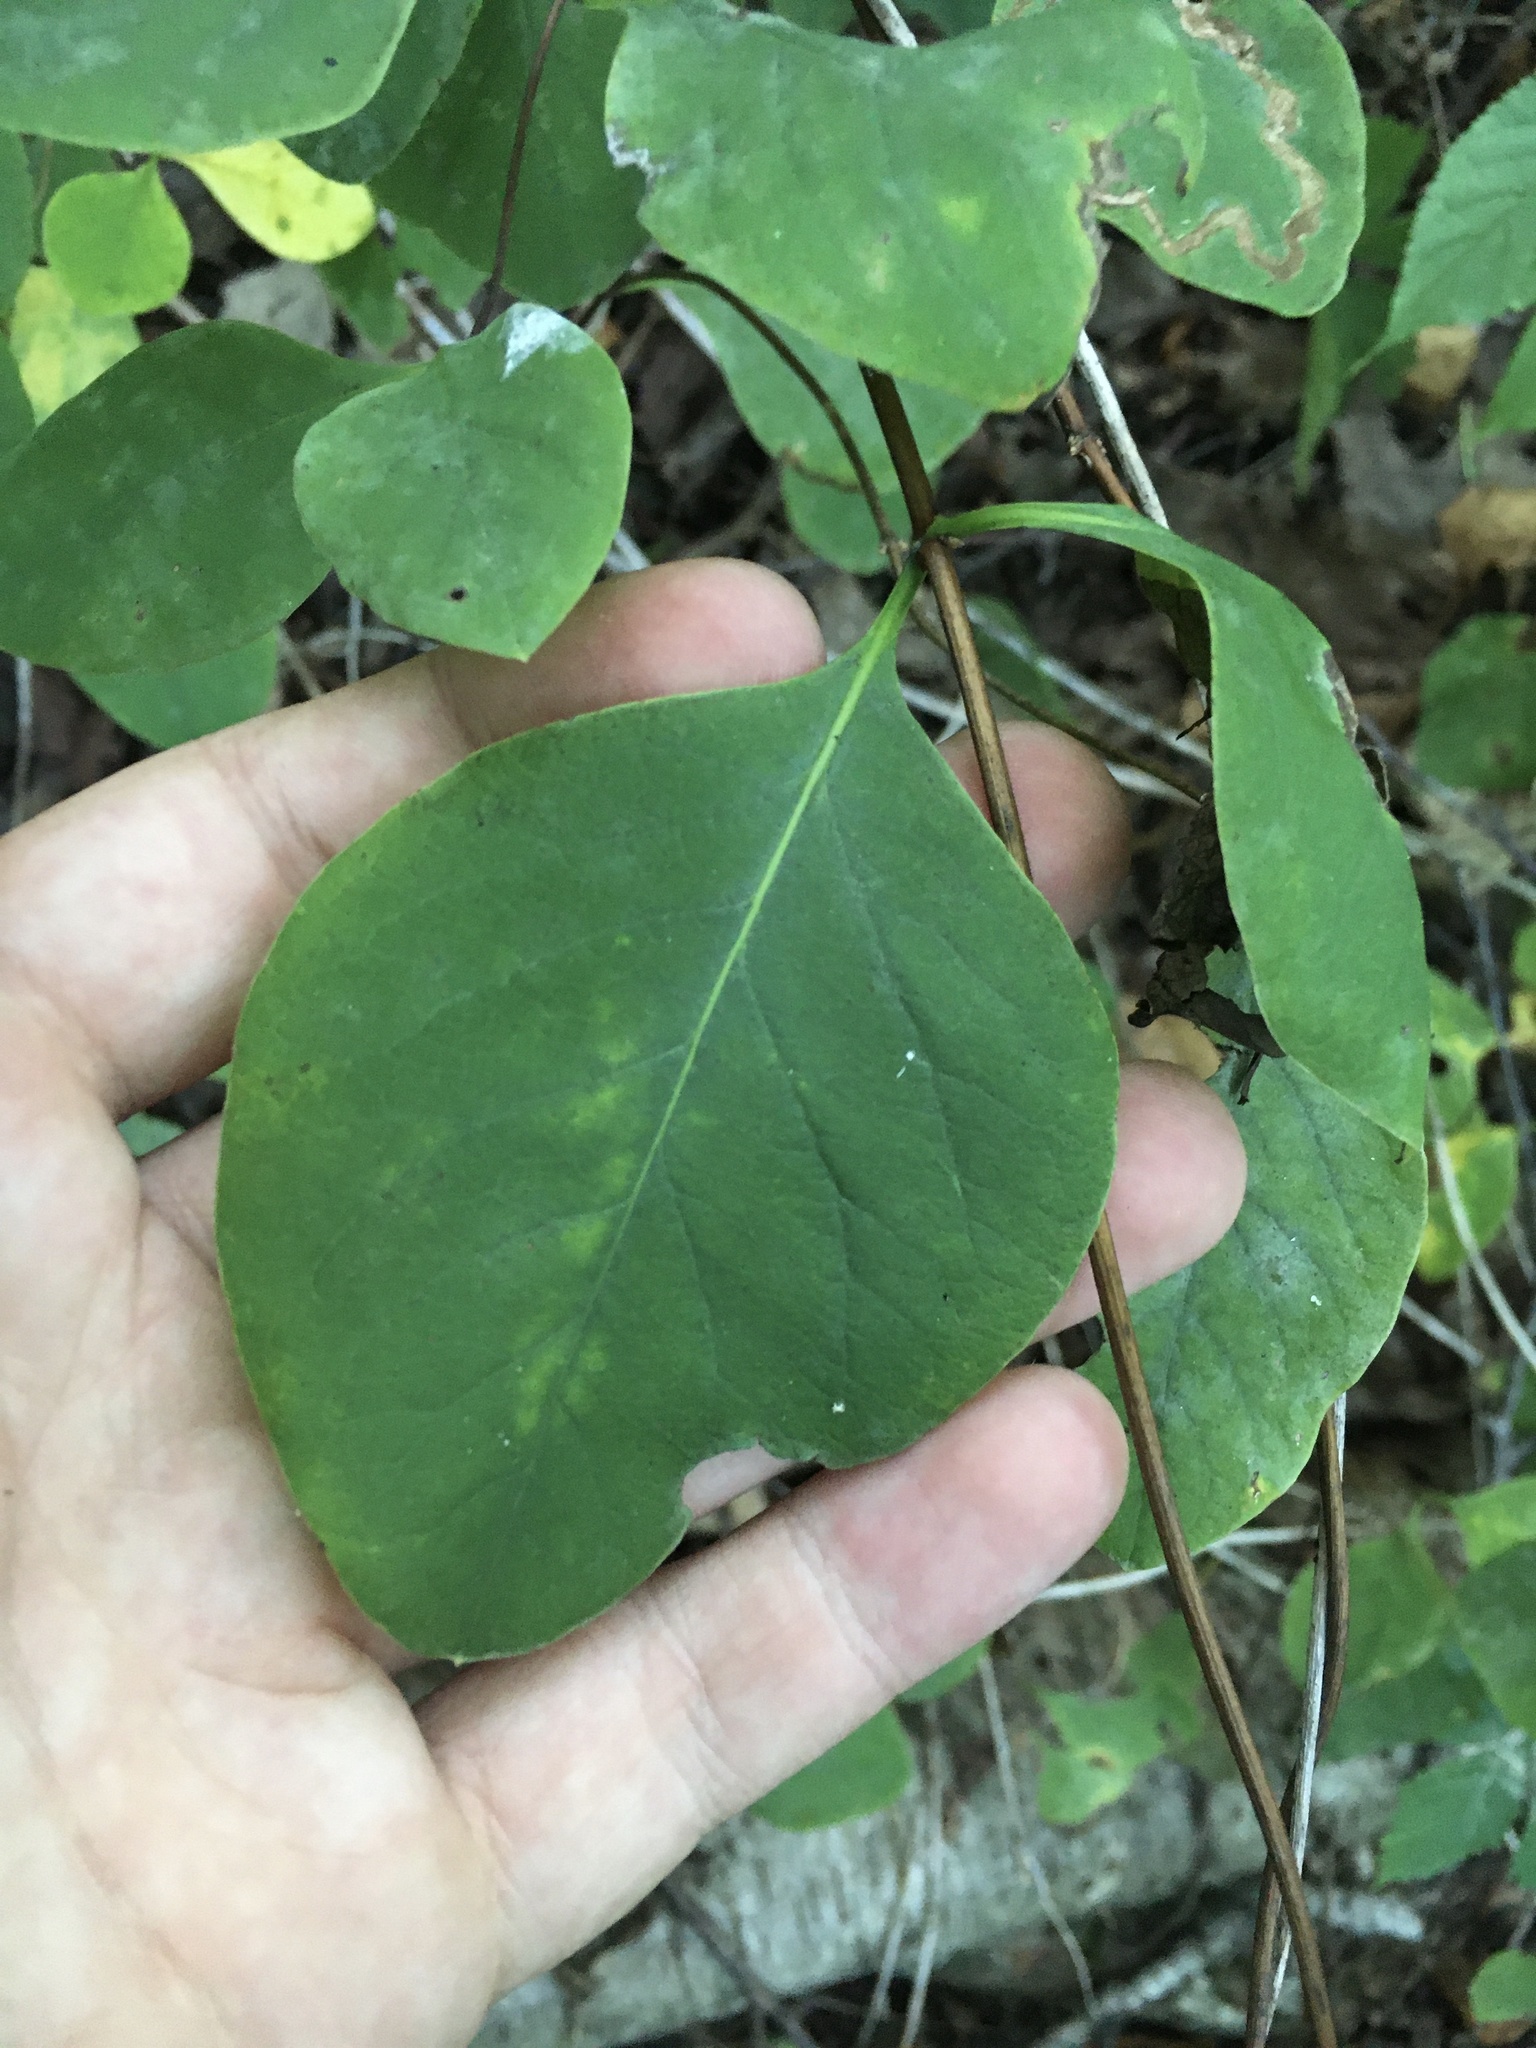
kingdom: Plantae
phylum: Tracheophyta
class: Magnoliopsida
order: Dipsacales
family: Caprifoliaceae
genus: Lonicera
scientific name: Lonicera reticulata
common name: Grape honeysuckle
